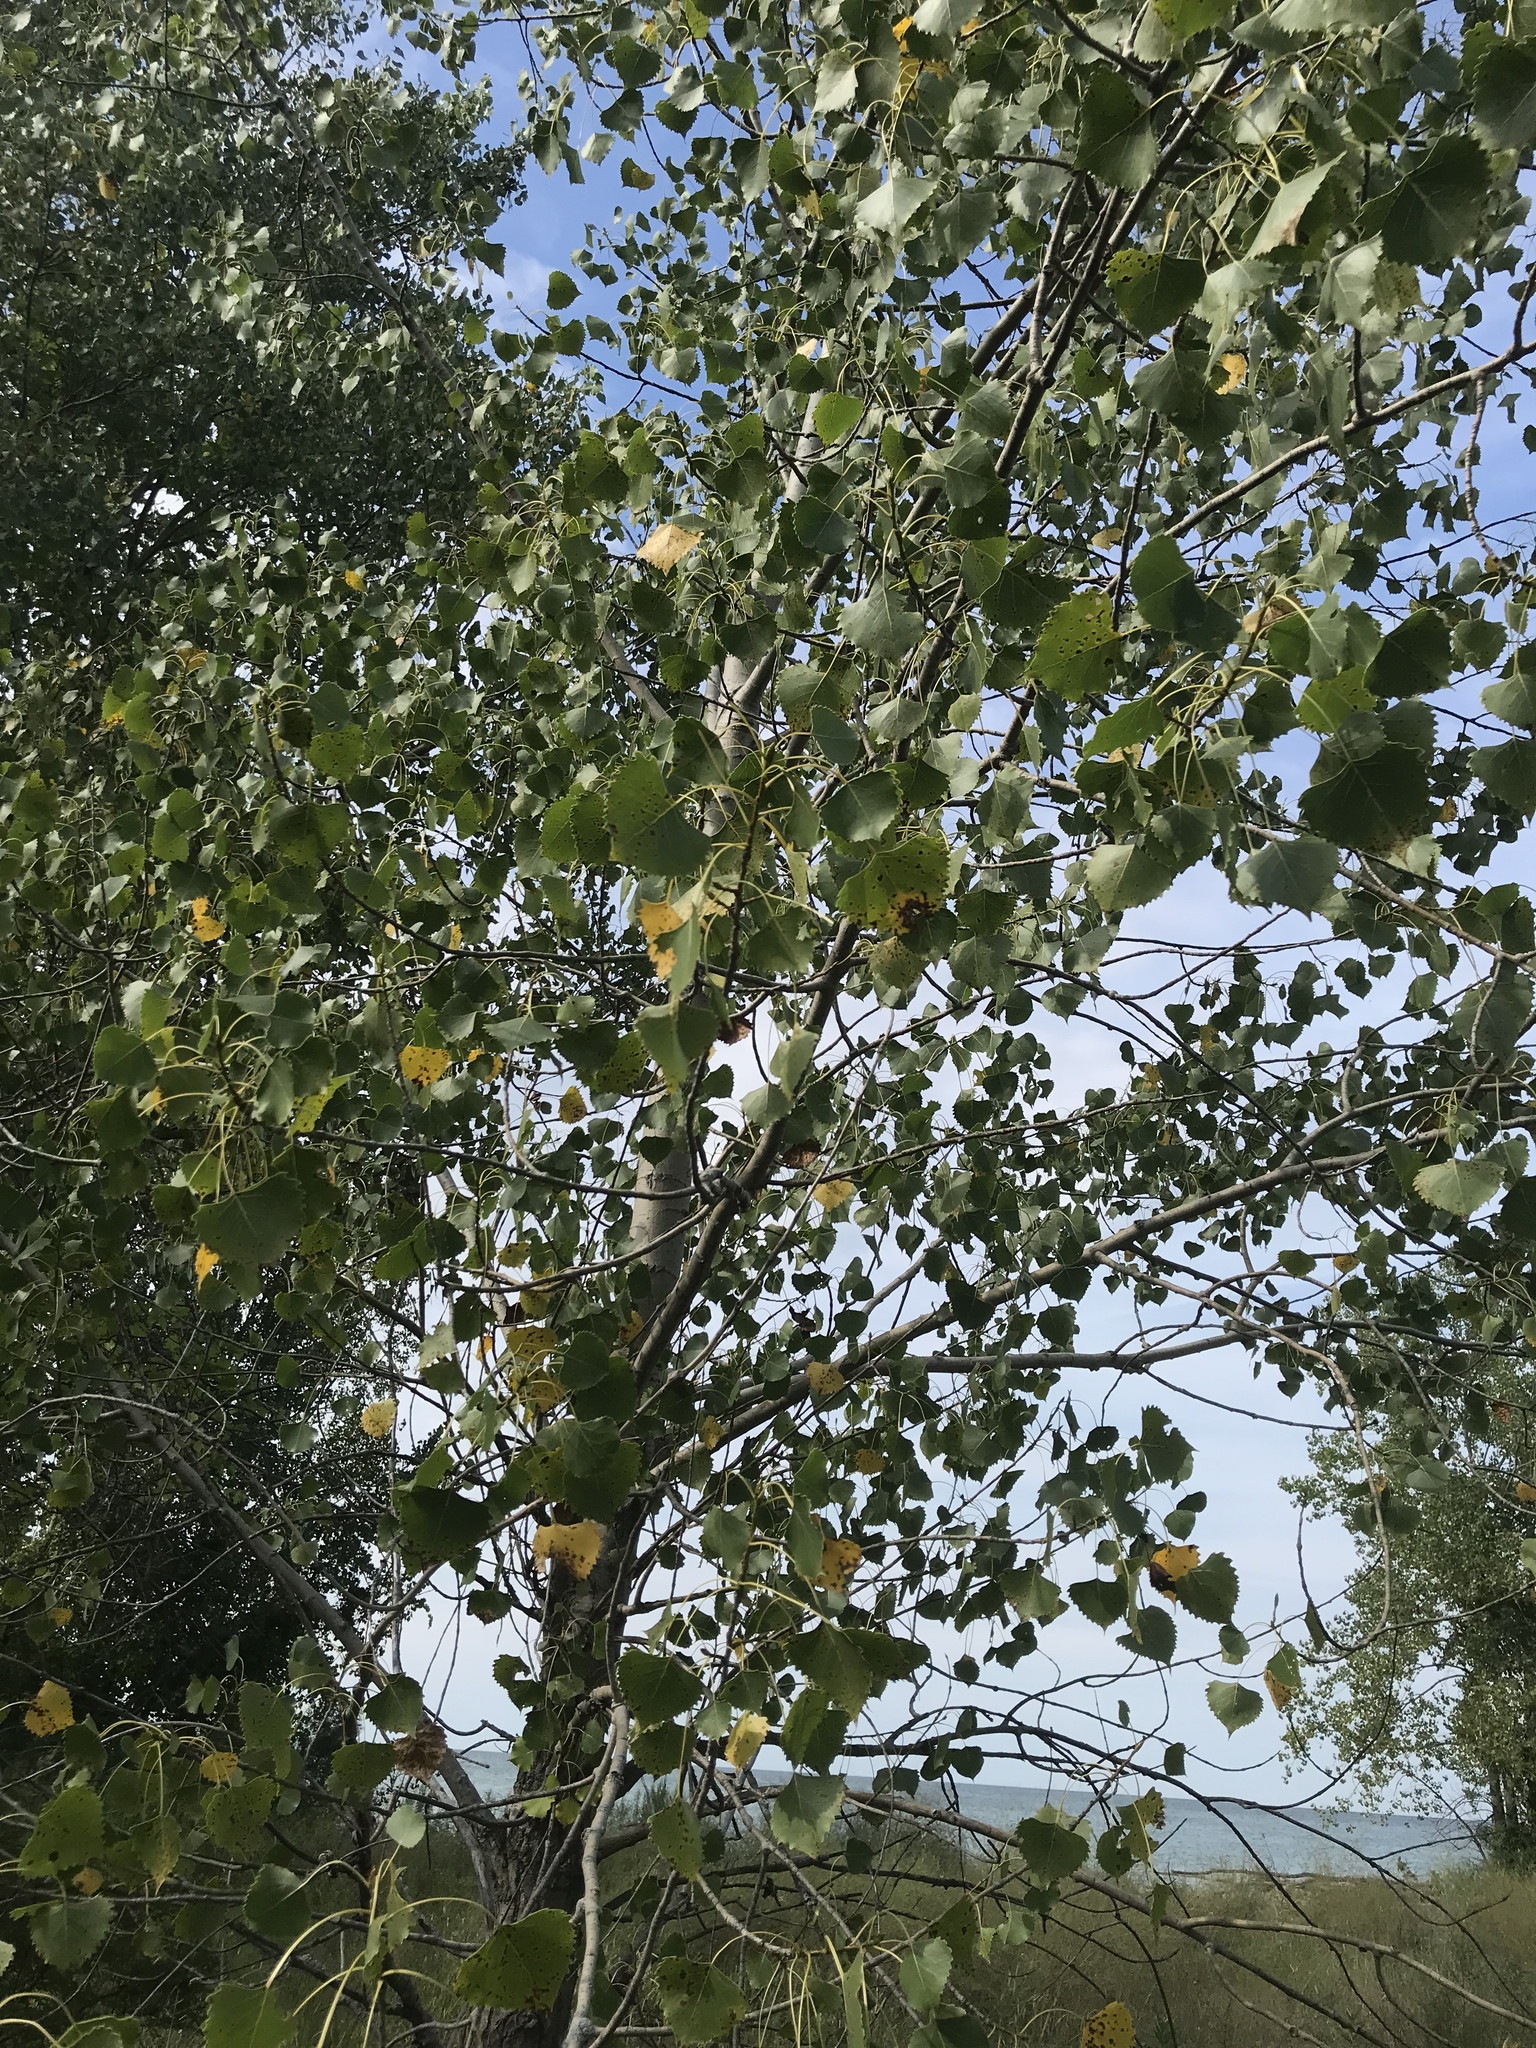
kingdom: Plantae
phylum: Tracheophyta
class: Magnoliopsida
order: Malpighiales
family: Salicaceae
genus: Populus
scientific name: Populus deltoides
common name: Eastern cottonwood
